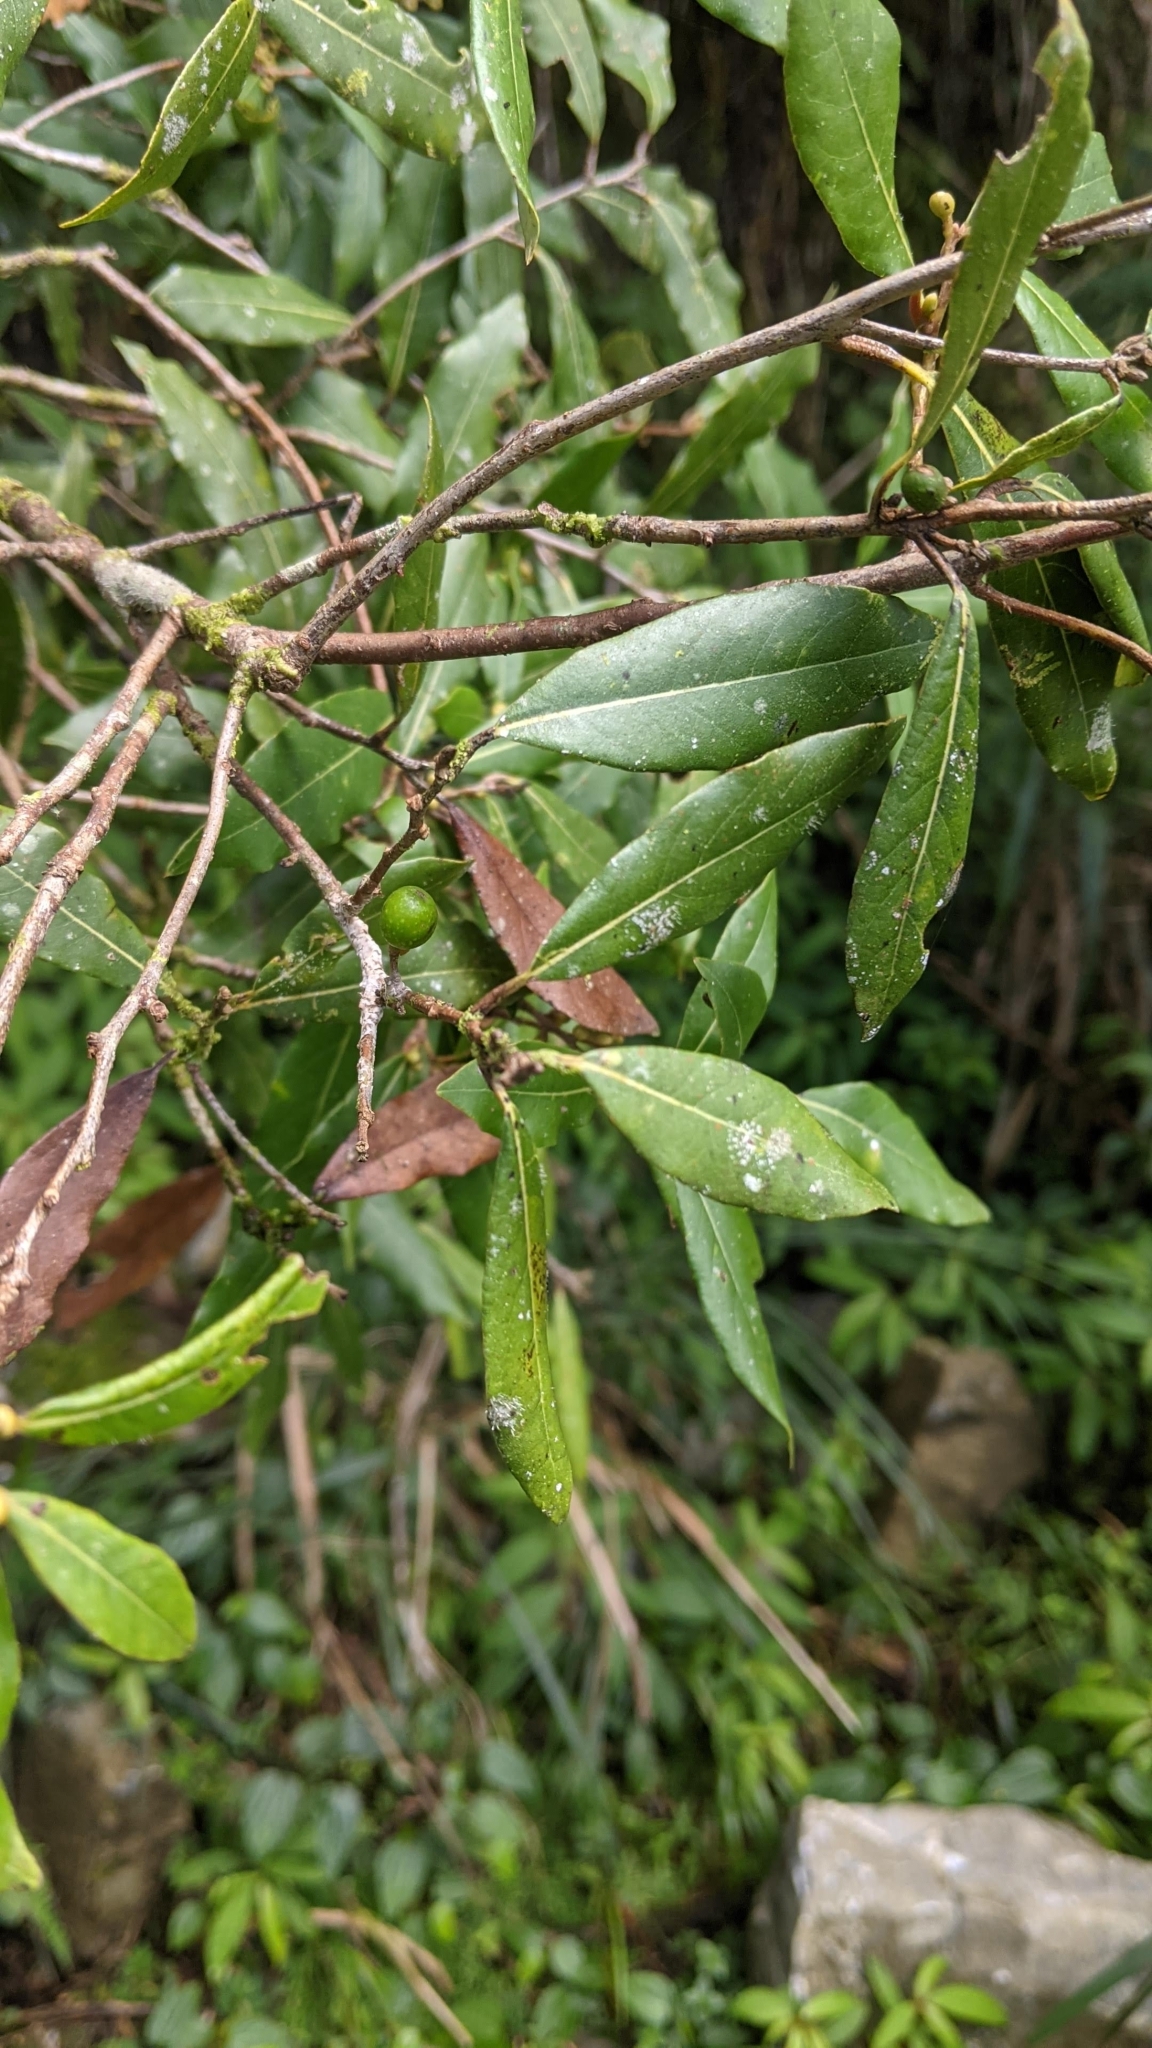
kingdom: Plantae
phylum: Tracheophyta
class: Magnoliopsida
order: Laurales
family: Lauraceae
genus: Litsea
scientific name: Litsea morrisonensis
